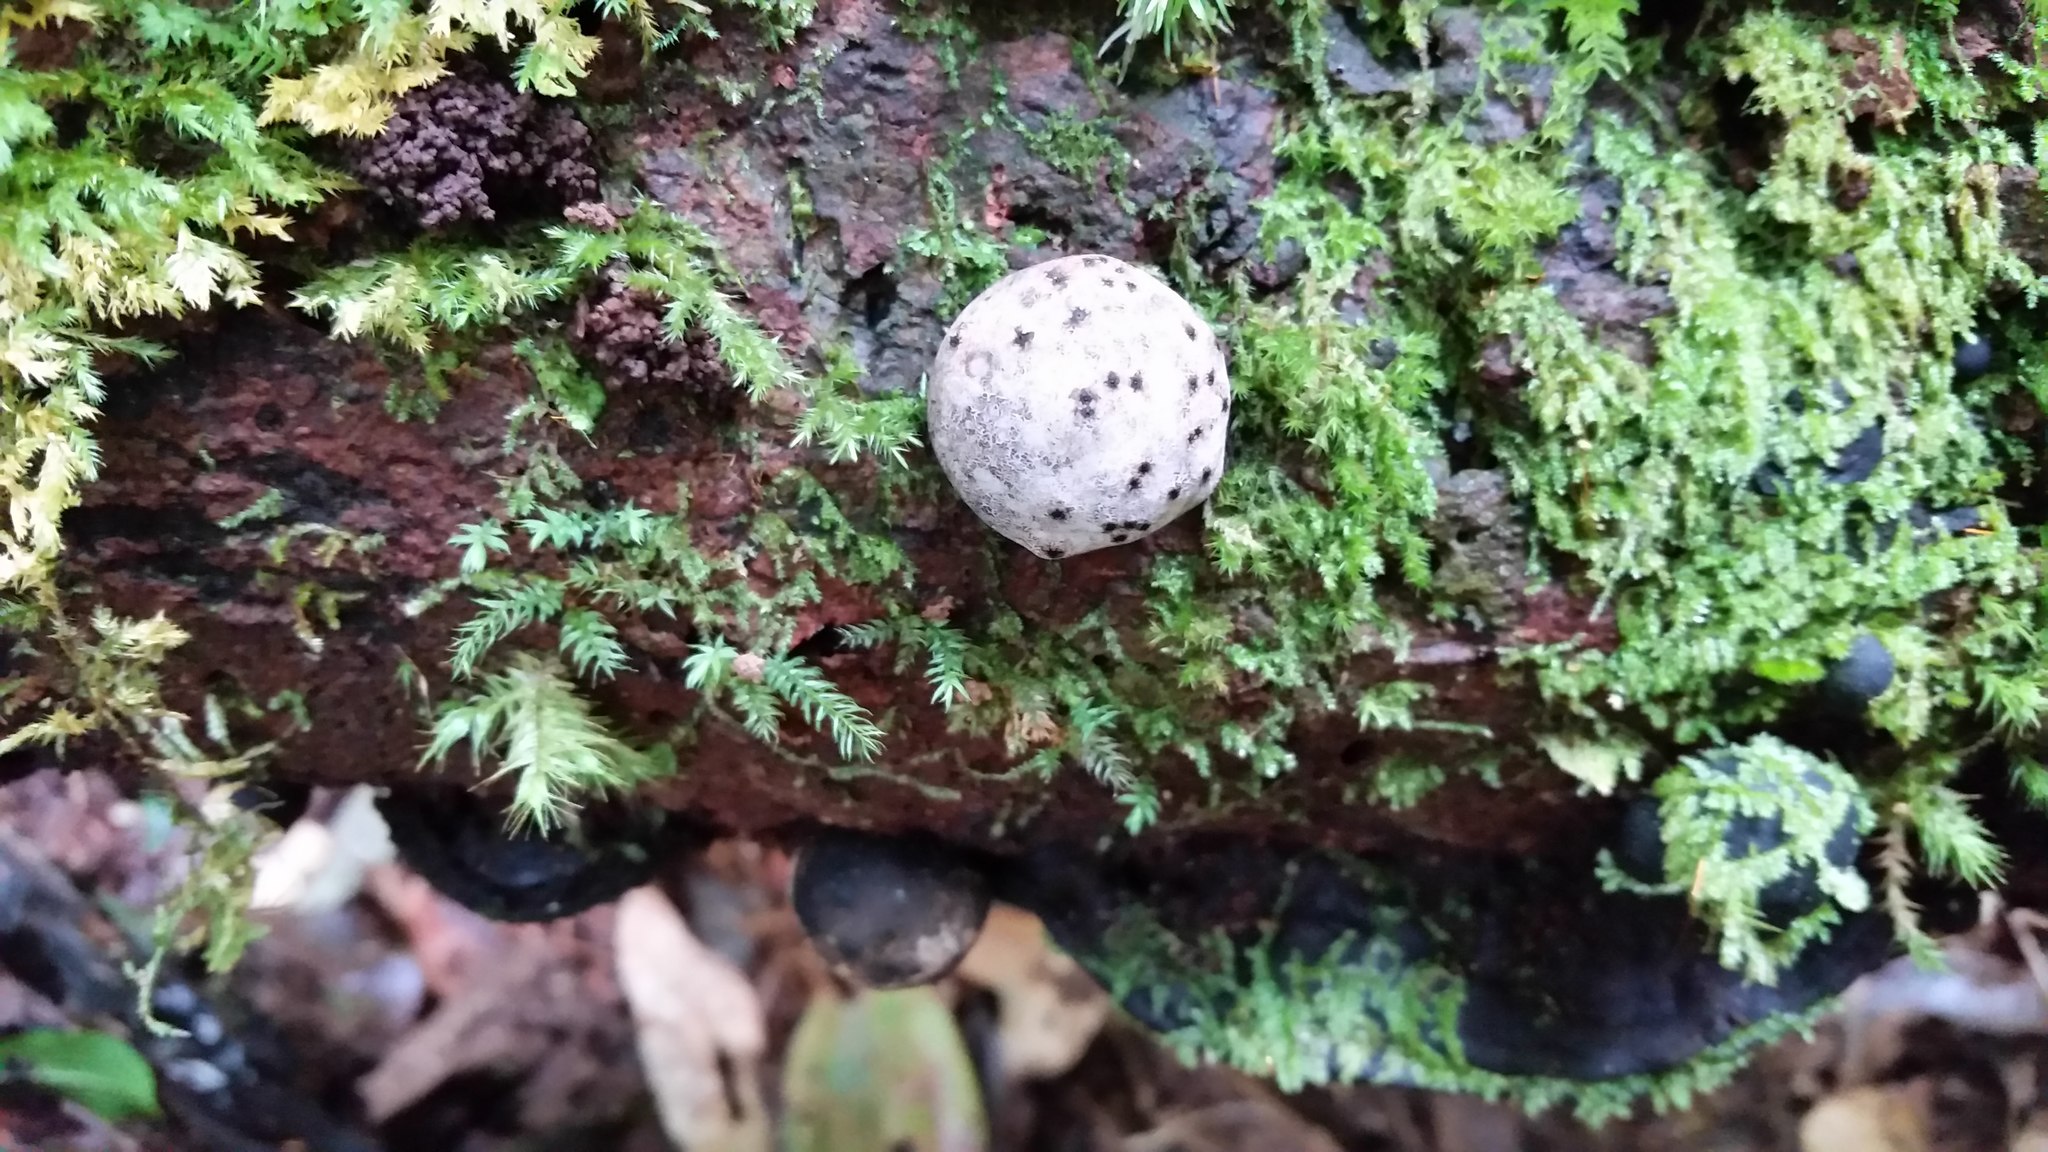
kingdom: Fungi
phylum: Ascomycota
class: Sordariomycetes
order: Xylariales
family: Xylariaceae
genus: Xylaria
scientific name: Xylaria cranioides
